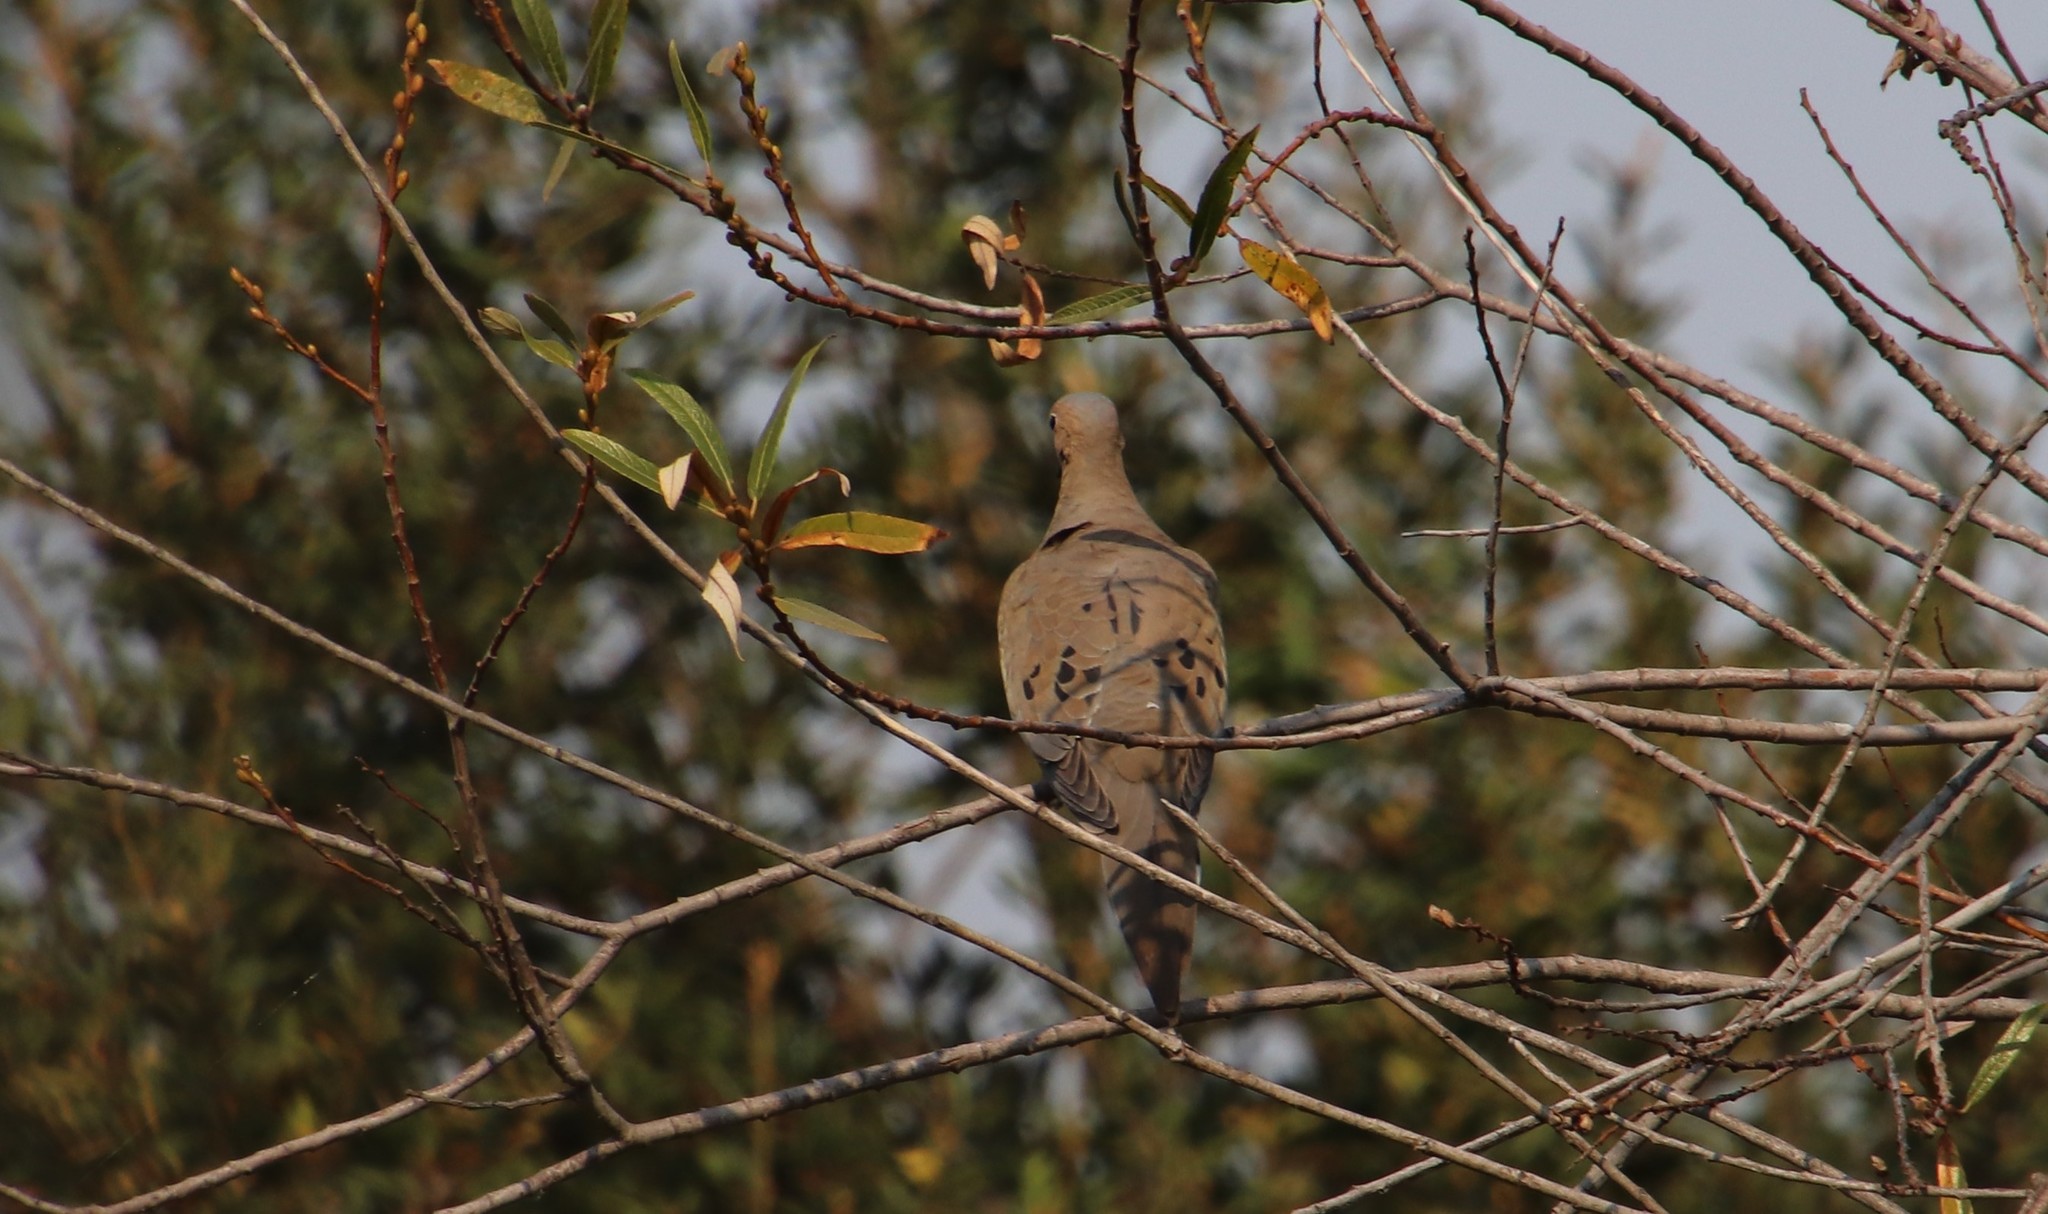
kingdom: Animalia
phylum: Chordata
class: Aves
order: Columbiformes
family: Columbidae
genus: Zenaida
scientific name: Zenaida macroura
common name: Mourning dove
